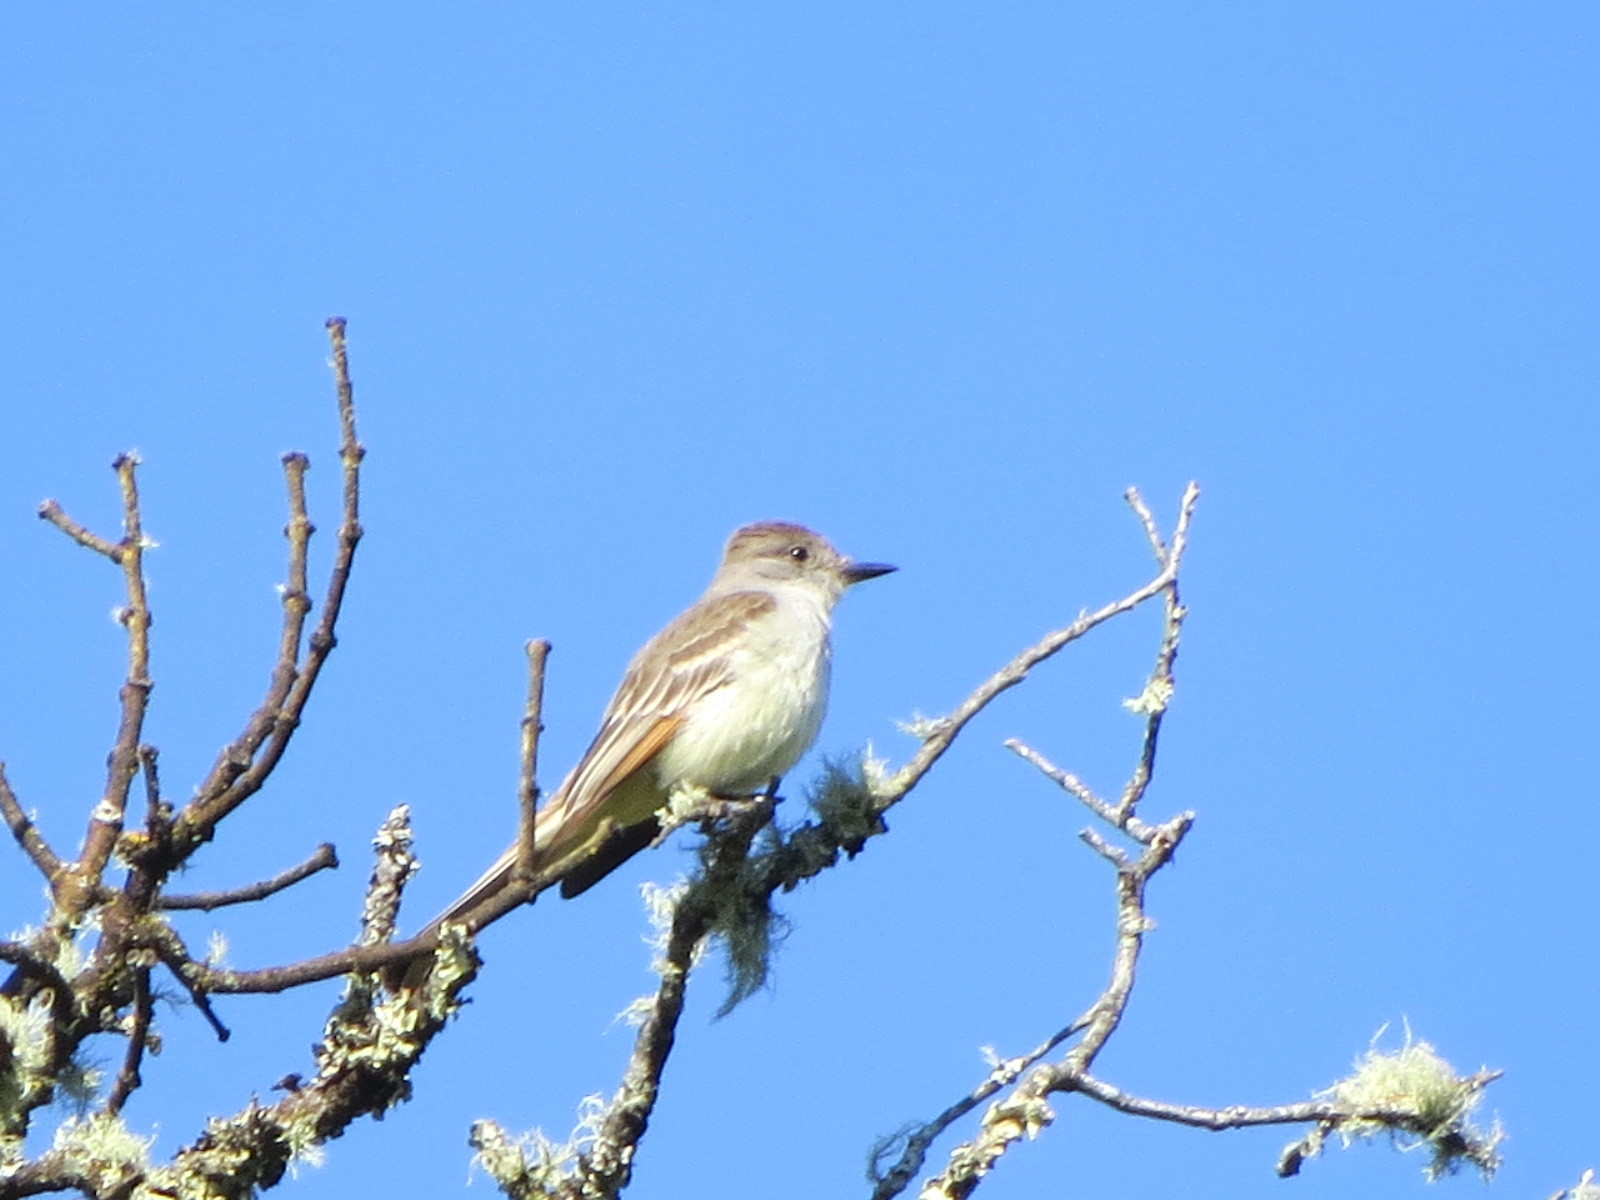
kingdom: Animalia
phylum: Chordata
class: Aves
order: Passeriformes
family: Tyrannidae
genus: Myiarchus
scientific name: Myiarchus cinerascens
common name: Ash-throated flycatcher
